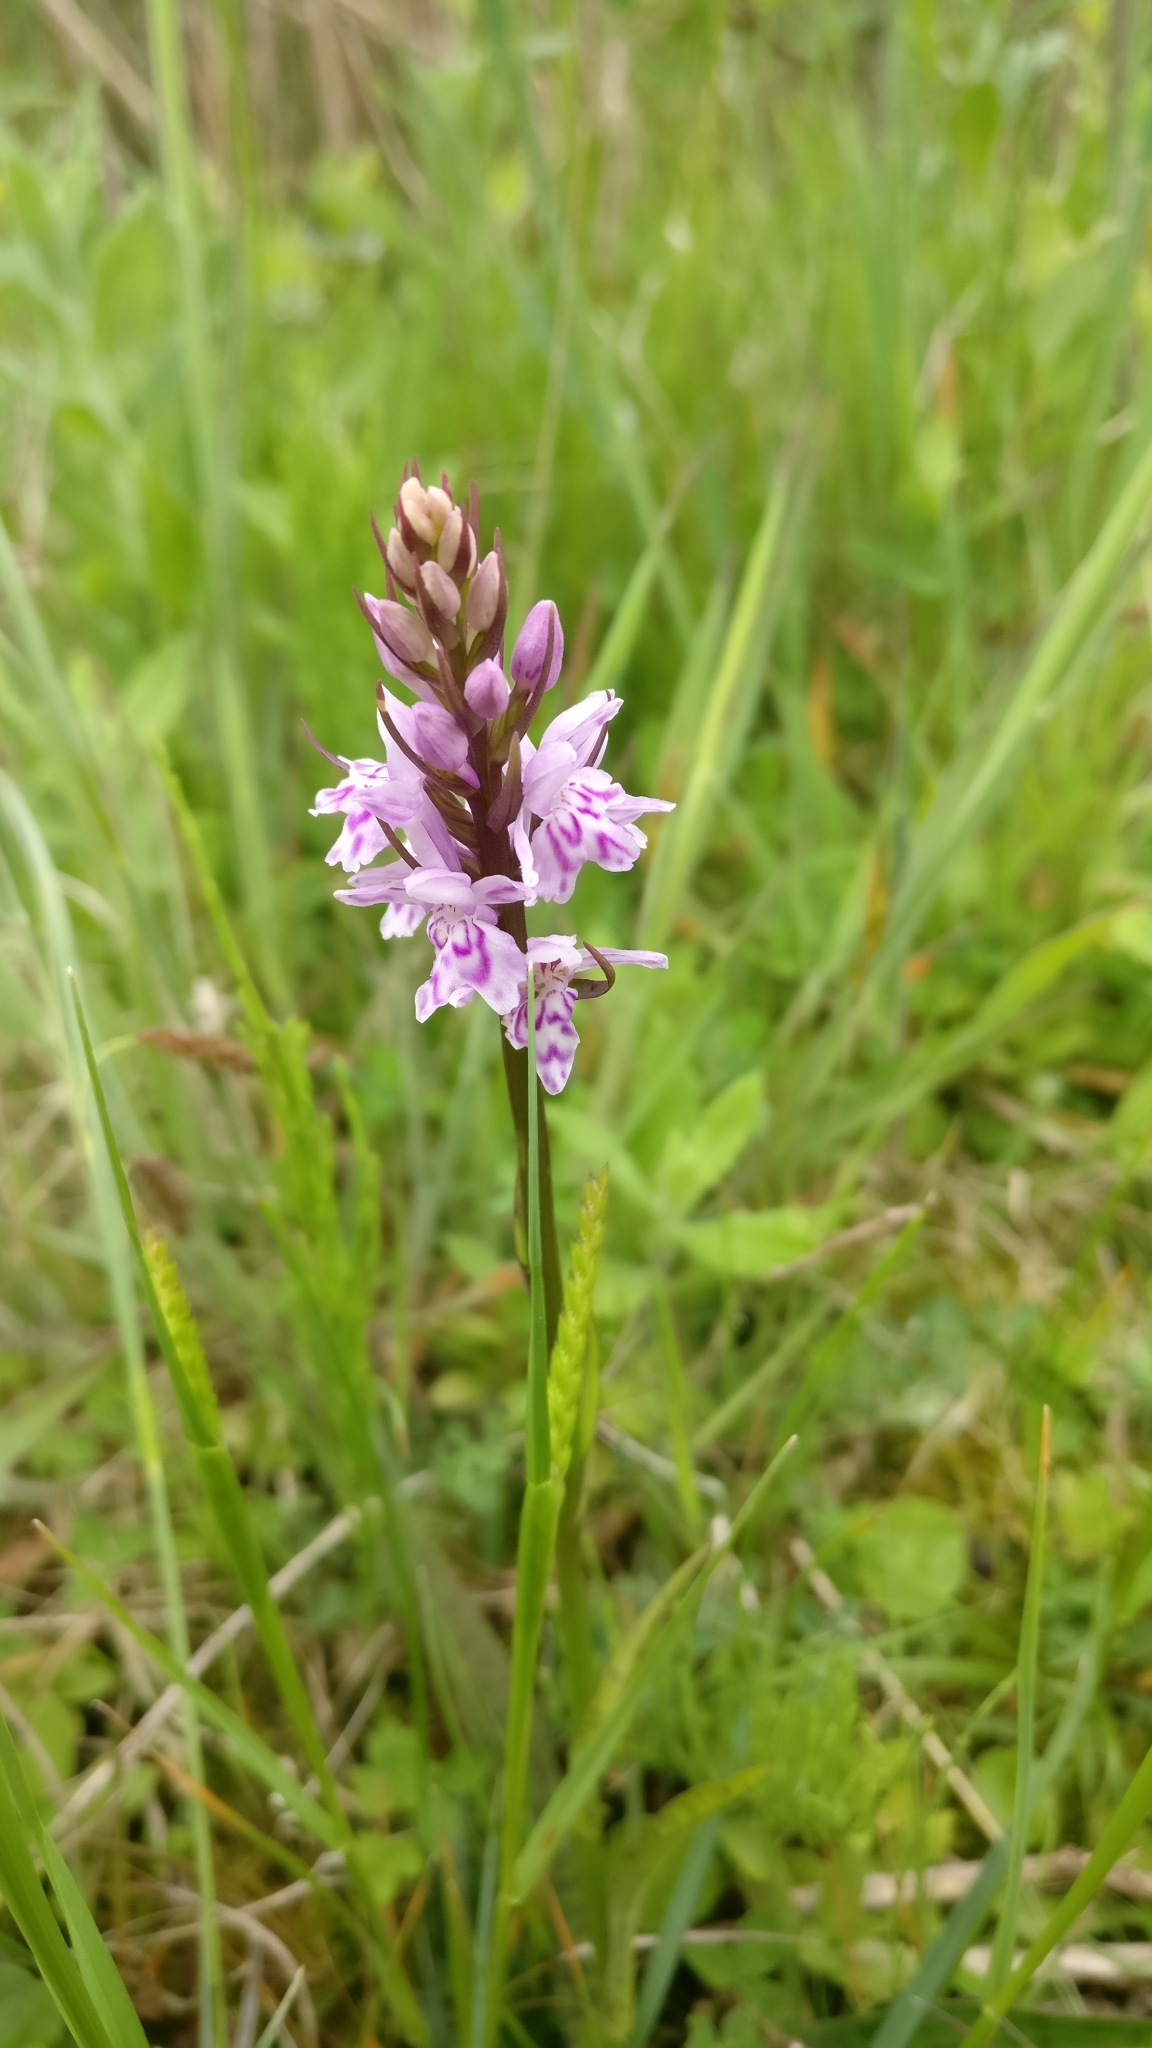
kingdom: Plantae
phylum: Tracheophyta
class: Liliopsida
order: Asparagales
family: Orchidaceae
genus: Dactylorhiza
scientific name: Dactylorhiza maculata
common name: Heath spotted-orchid
